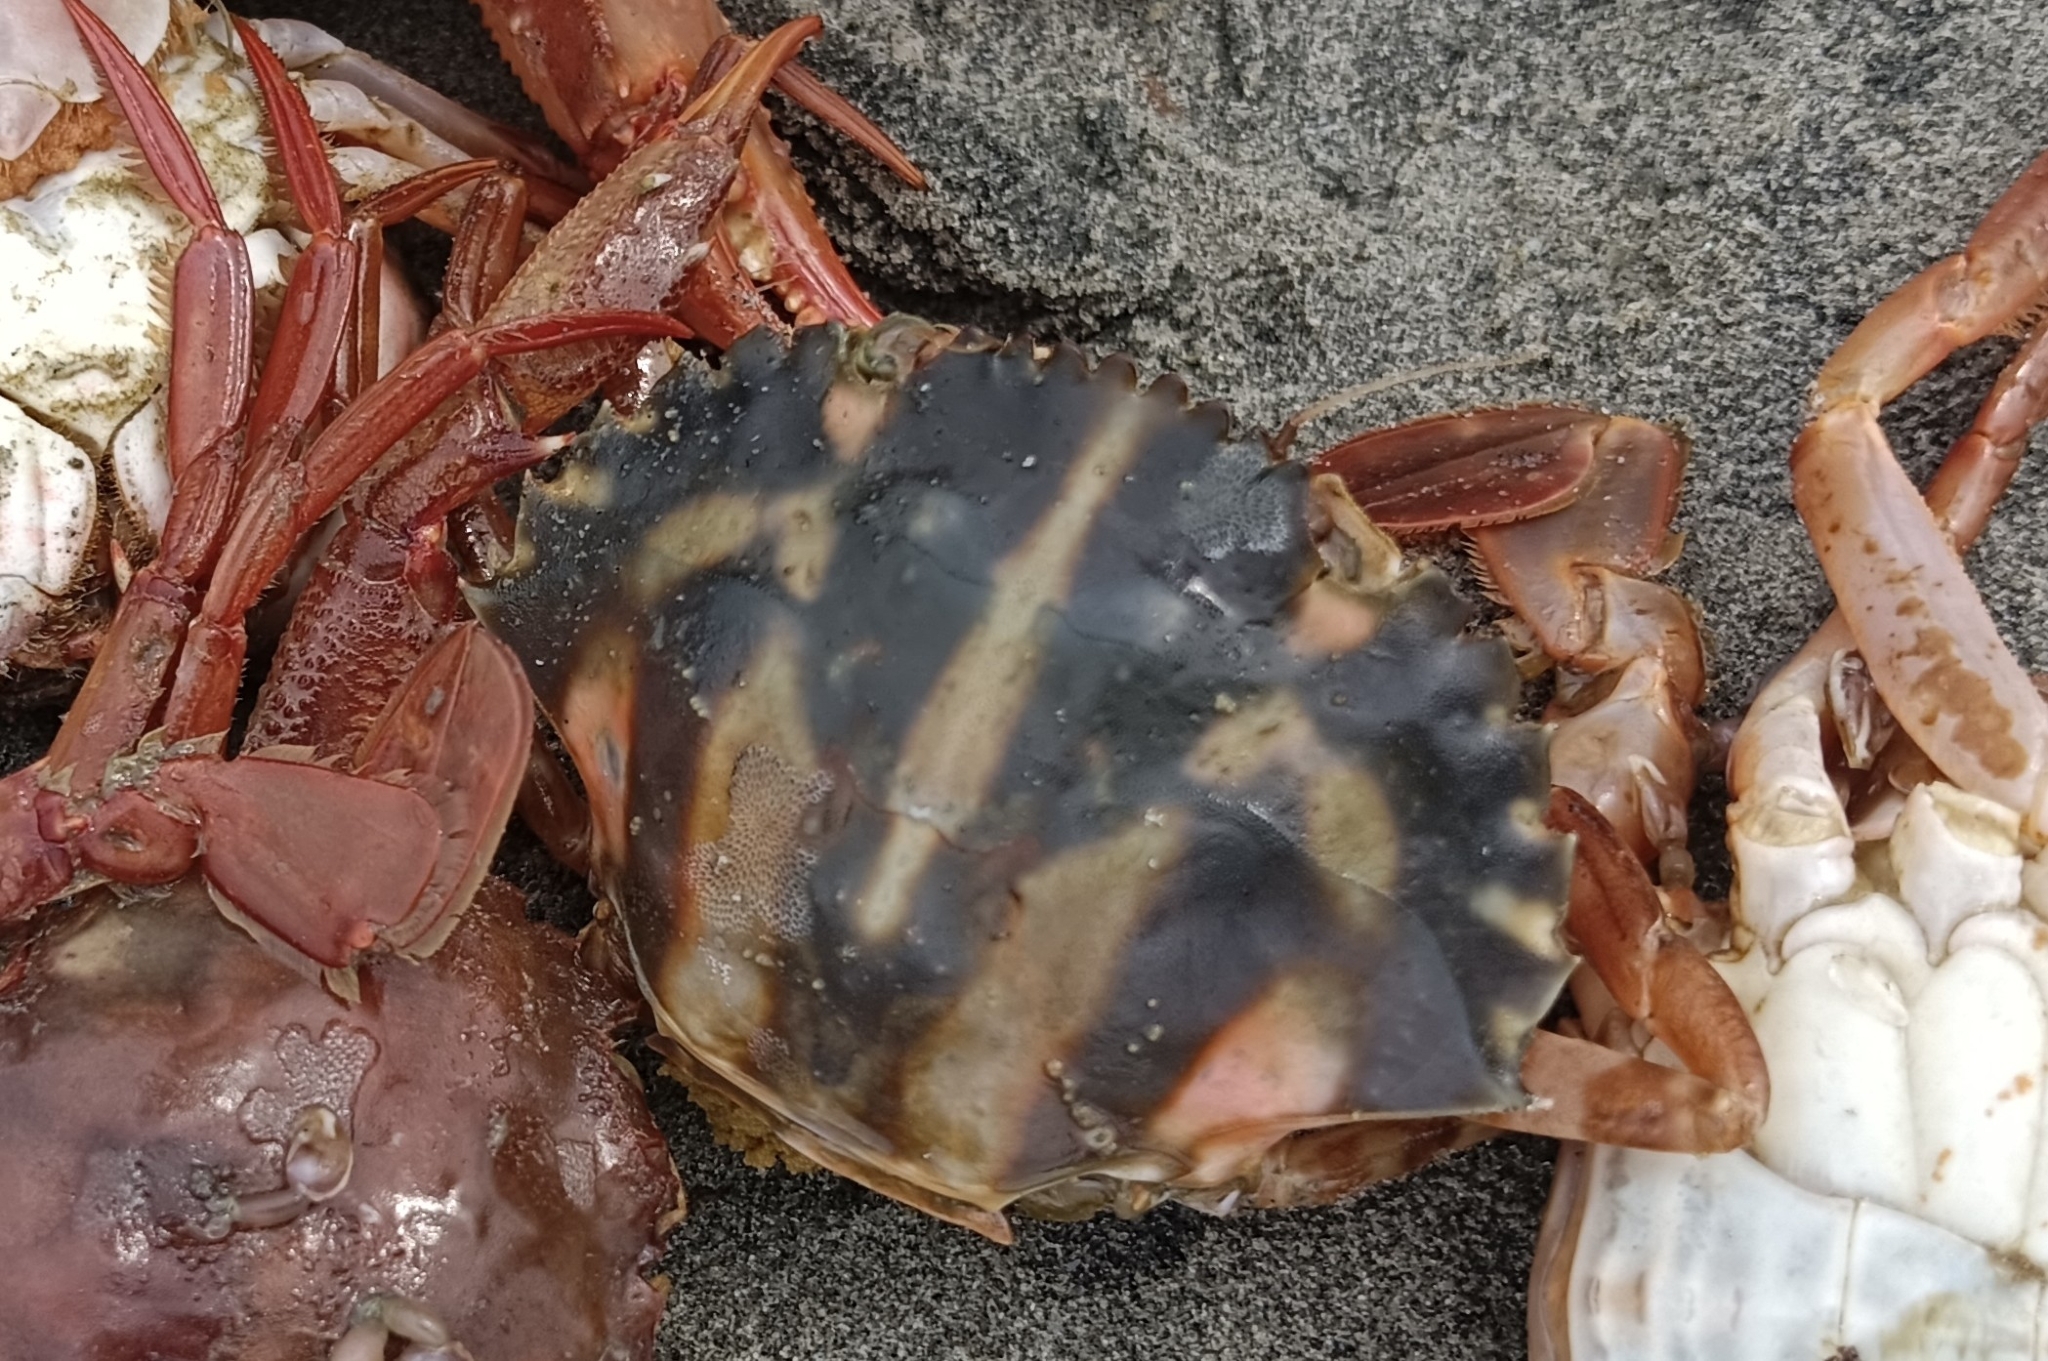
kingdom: Animalia
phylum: Arthropoda
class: Malacostraca
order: Decapoda
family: Portunidae
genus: Charybdis
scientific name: Charybdis feriata
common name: Striped swimming crab
